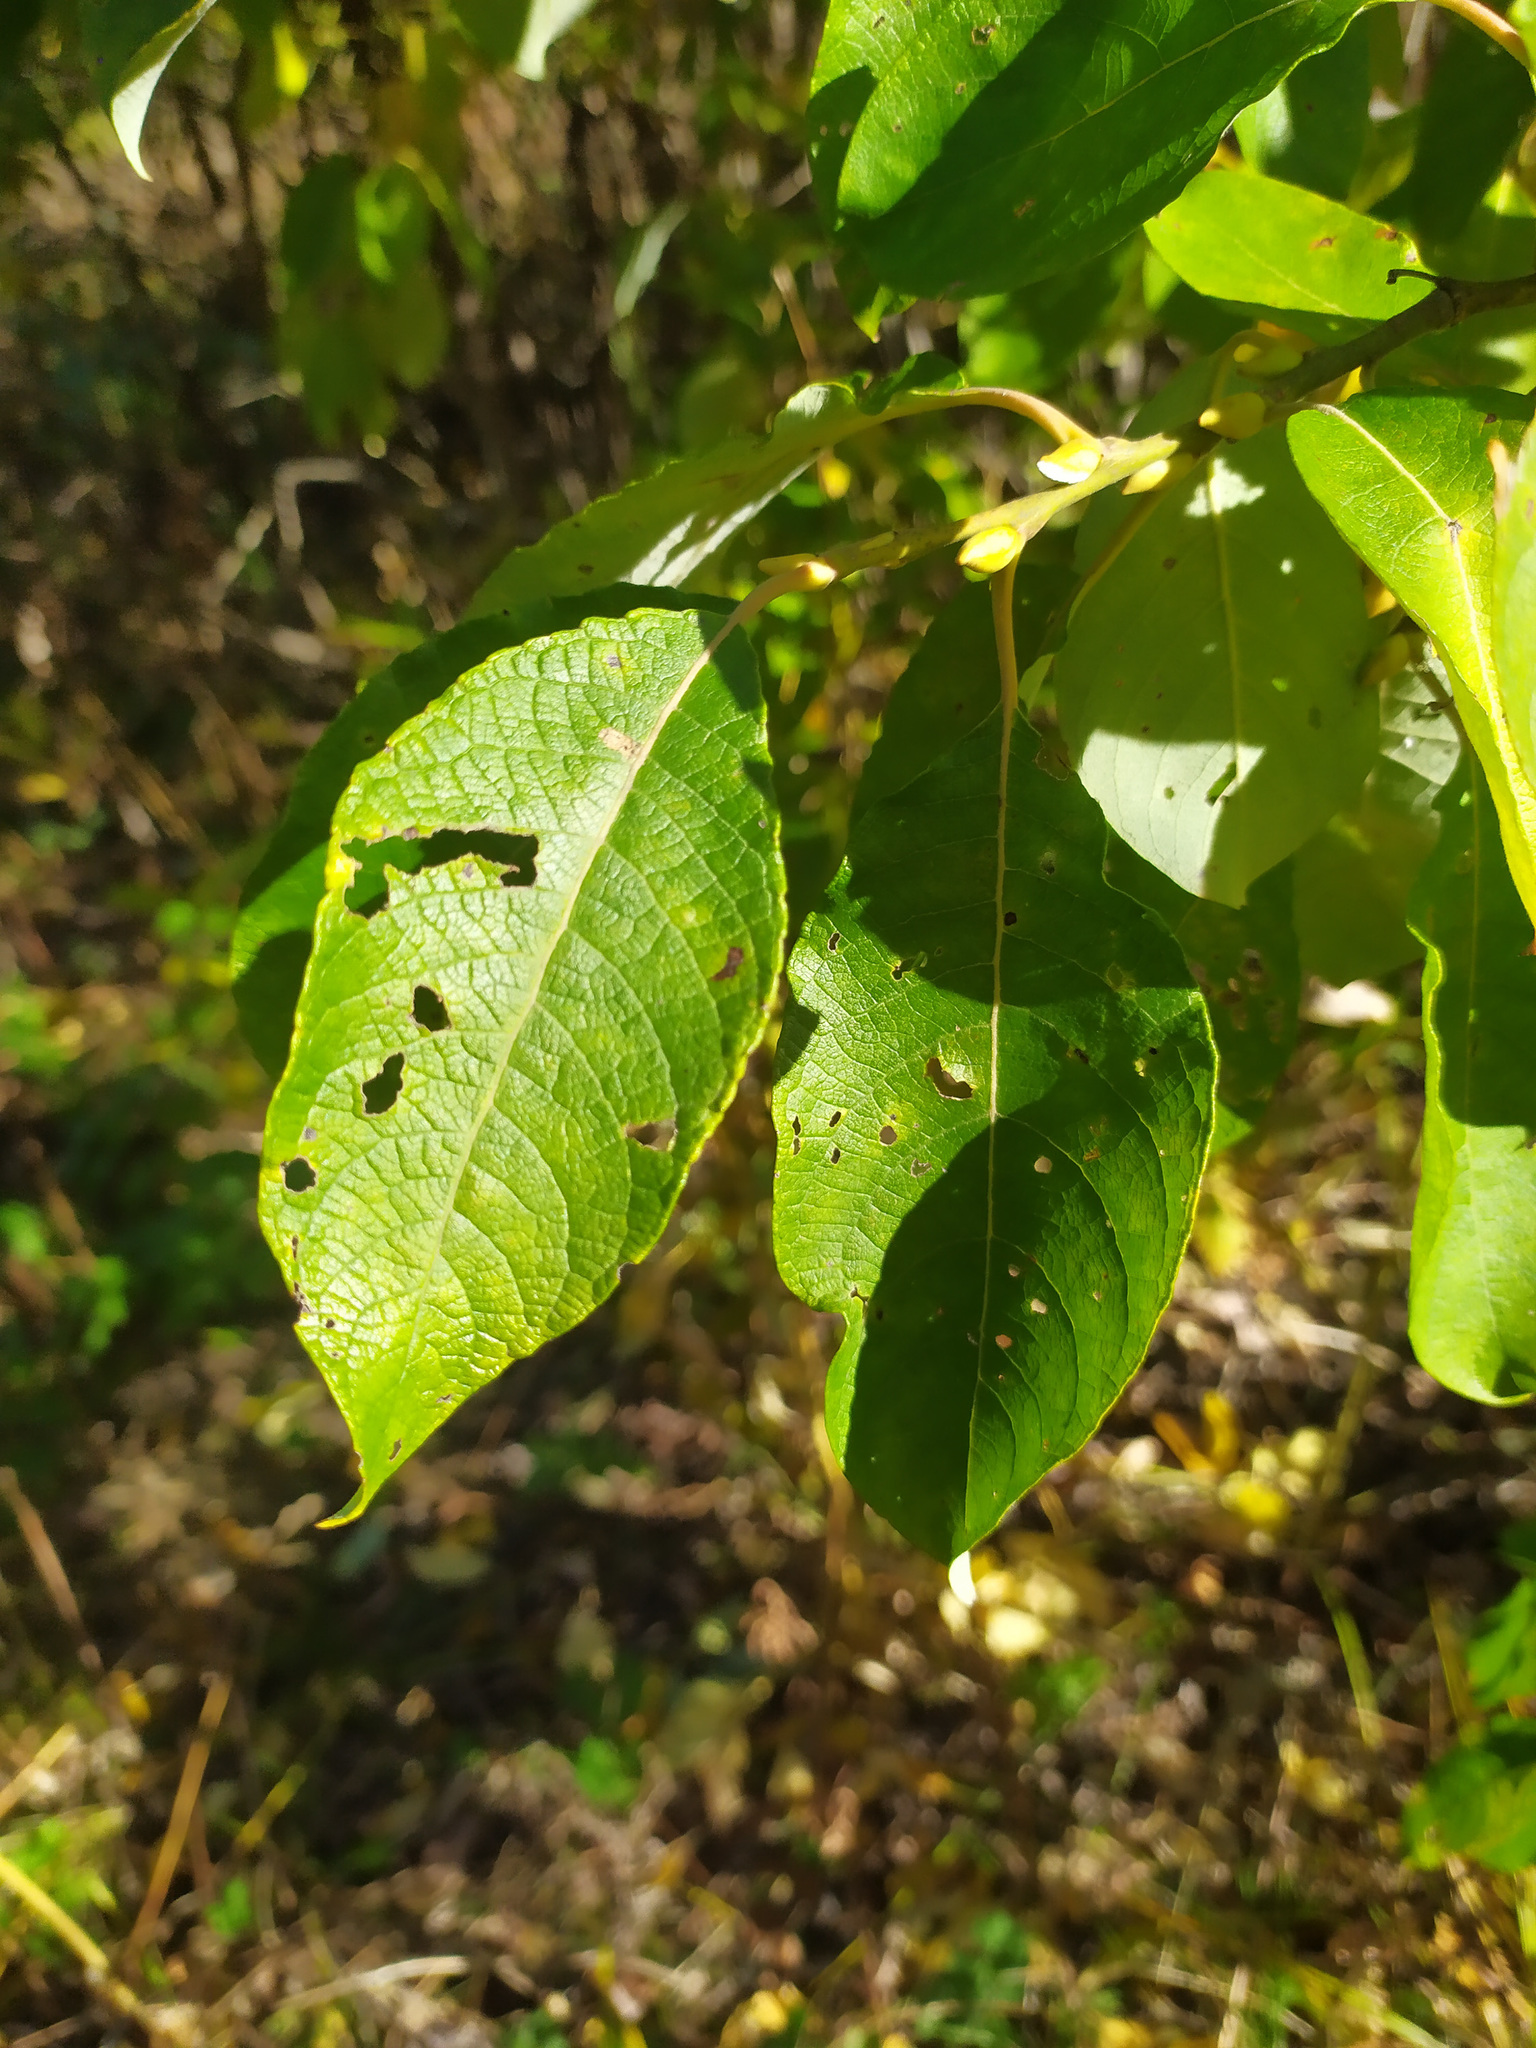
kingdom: Plantae
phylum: Tracheophyta
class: Magnoliopsida
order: Malpighiales
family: Salicaceae
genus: Salix
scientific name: Salix caprea
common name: Goat willow
